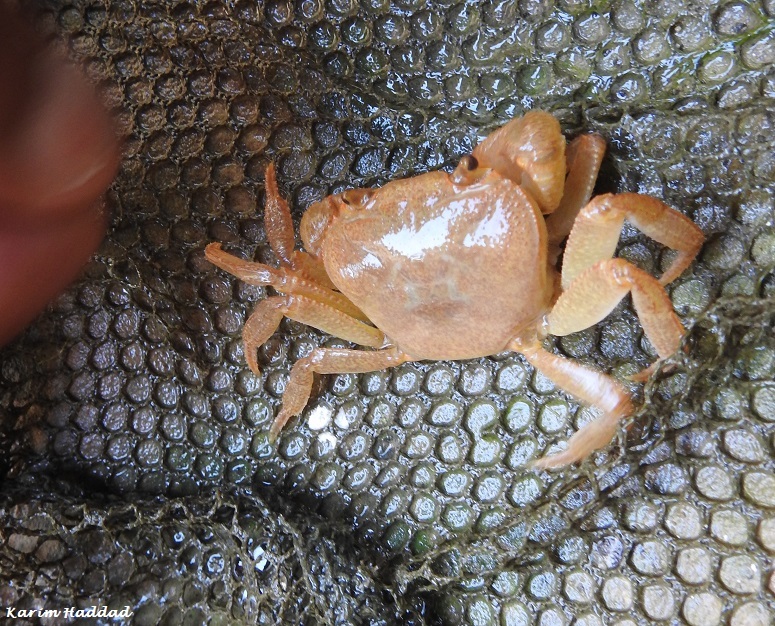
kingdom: Animalia
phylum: Arthropoda
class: Malacostraca
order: Decapoda
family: Potamidae
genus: Potamon
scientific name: Potamon algeriense
